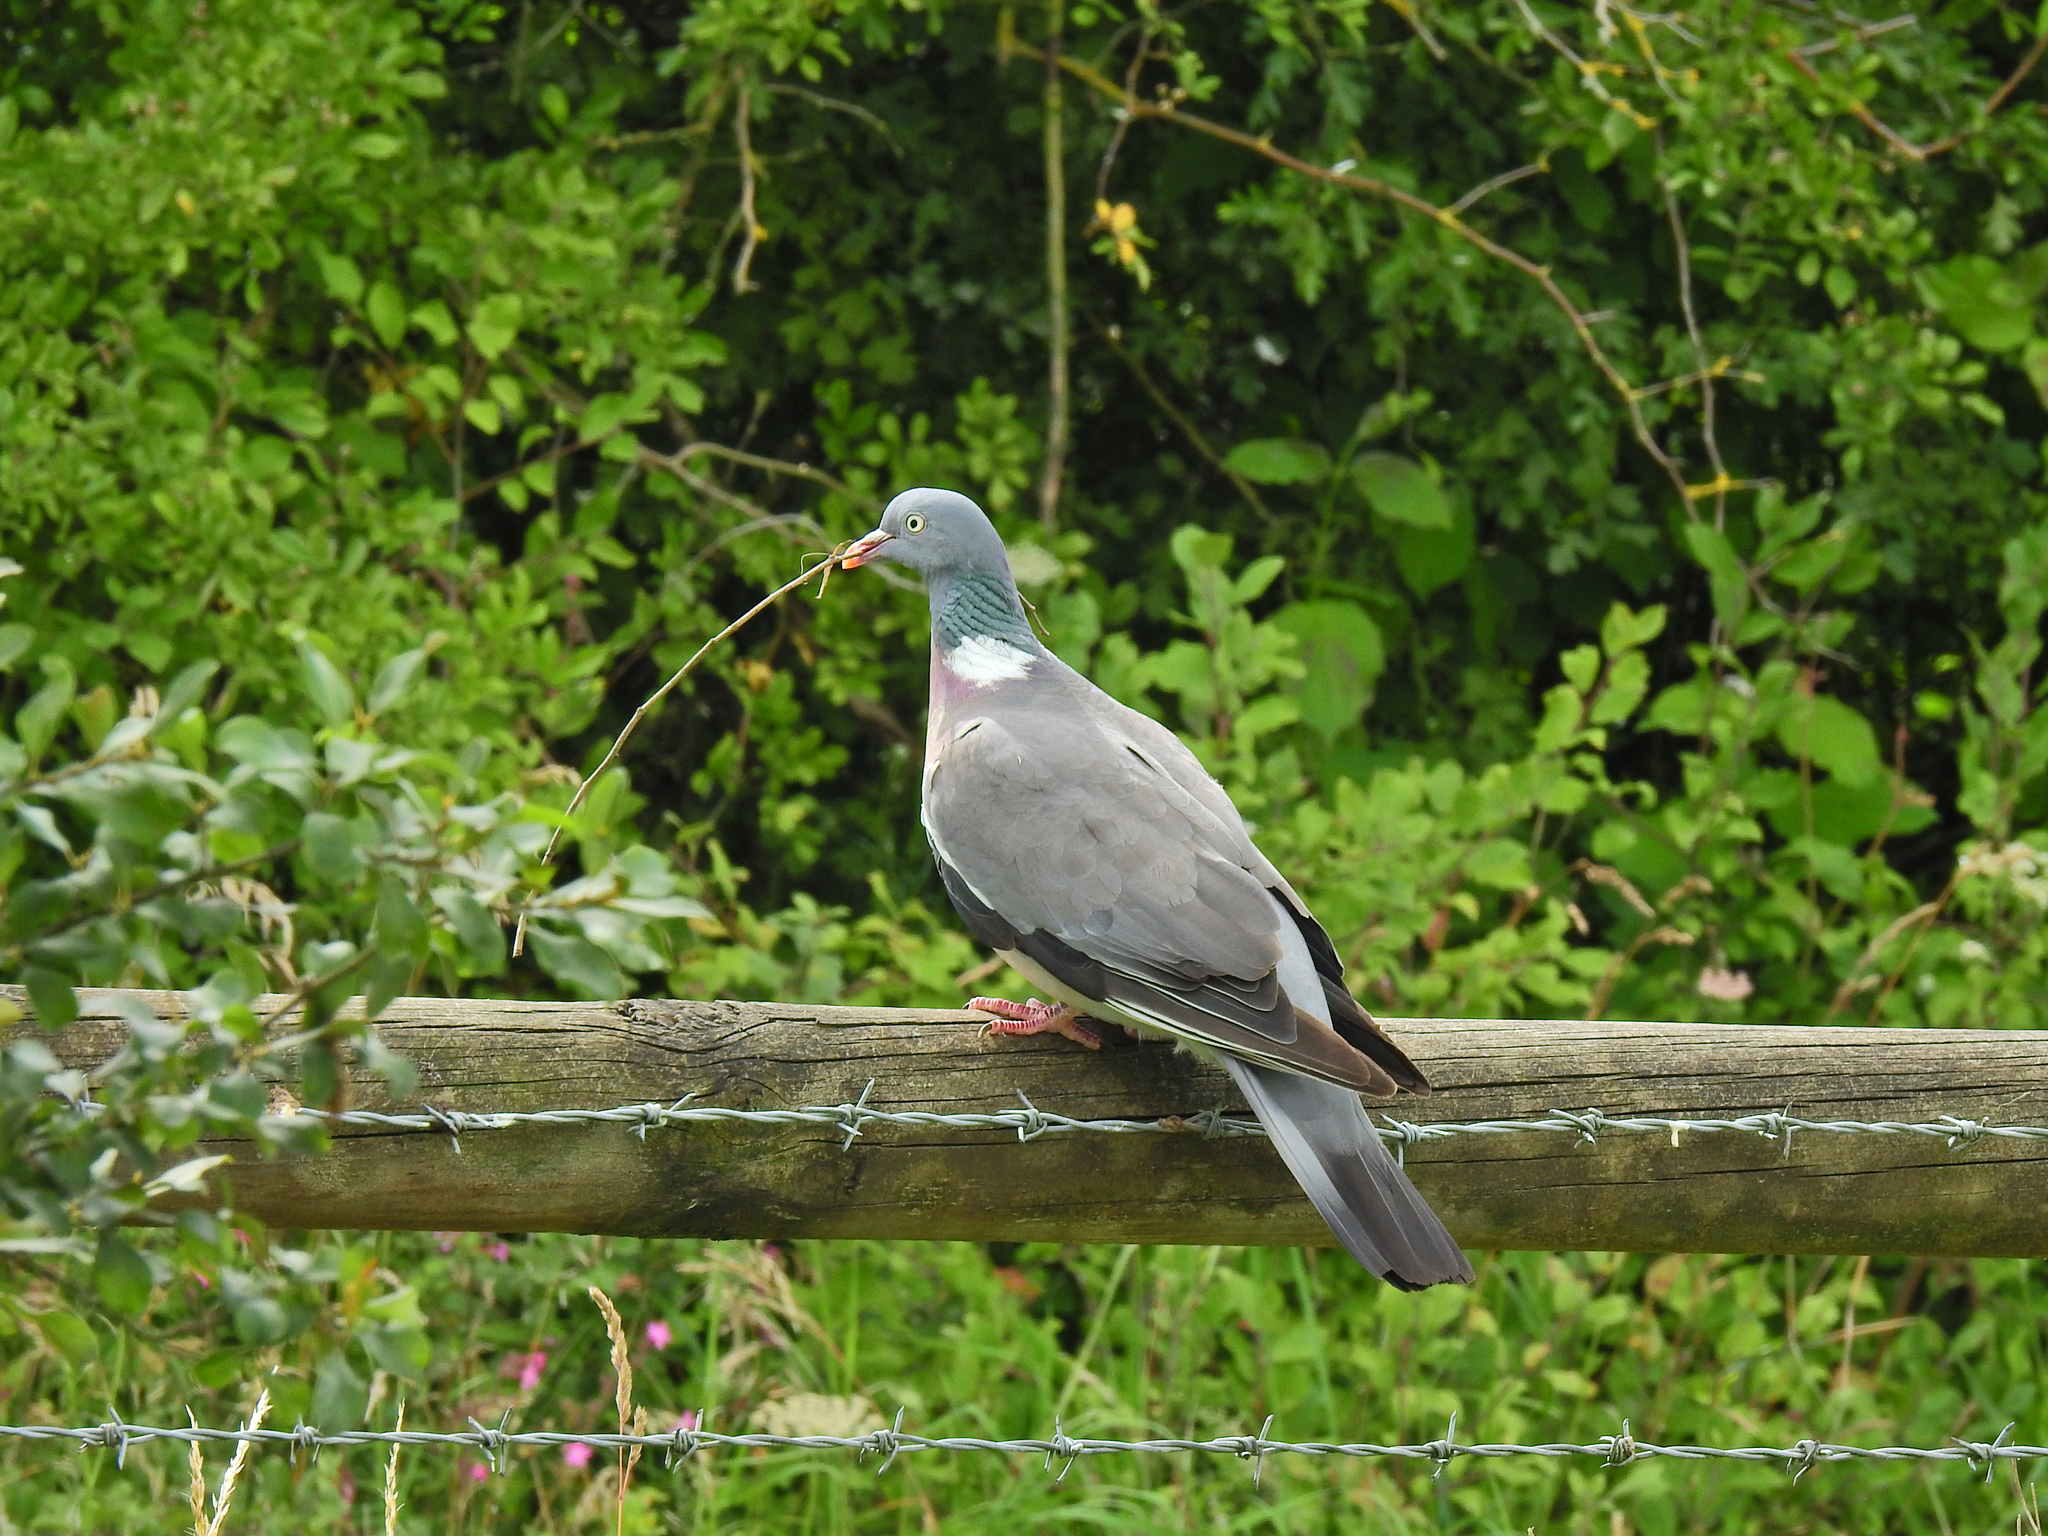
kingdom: Animalia
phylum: Chordata
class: Aves
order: Columbiformes
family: Columbidae
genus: Columba
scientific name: Columba palumbus
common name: Common wood pigeon
